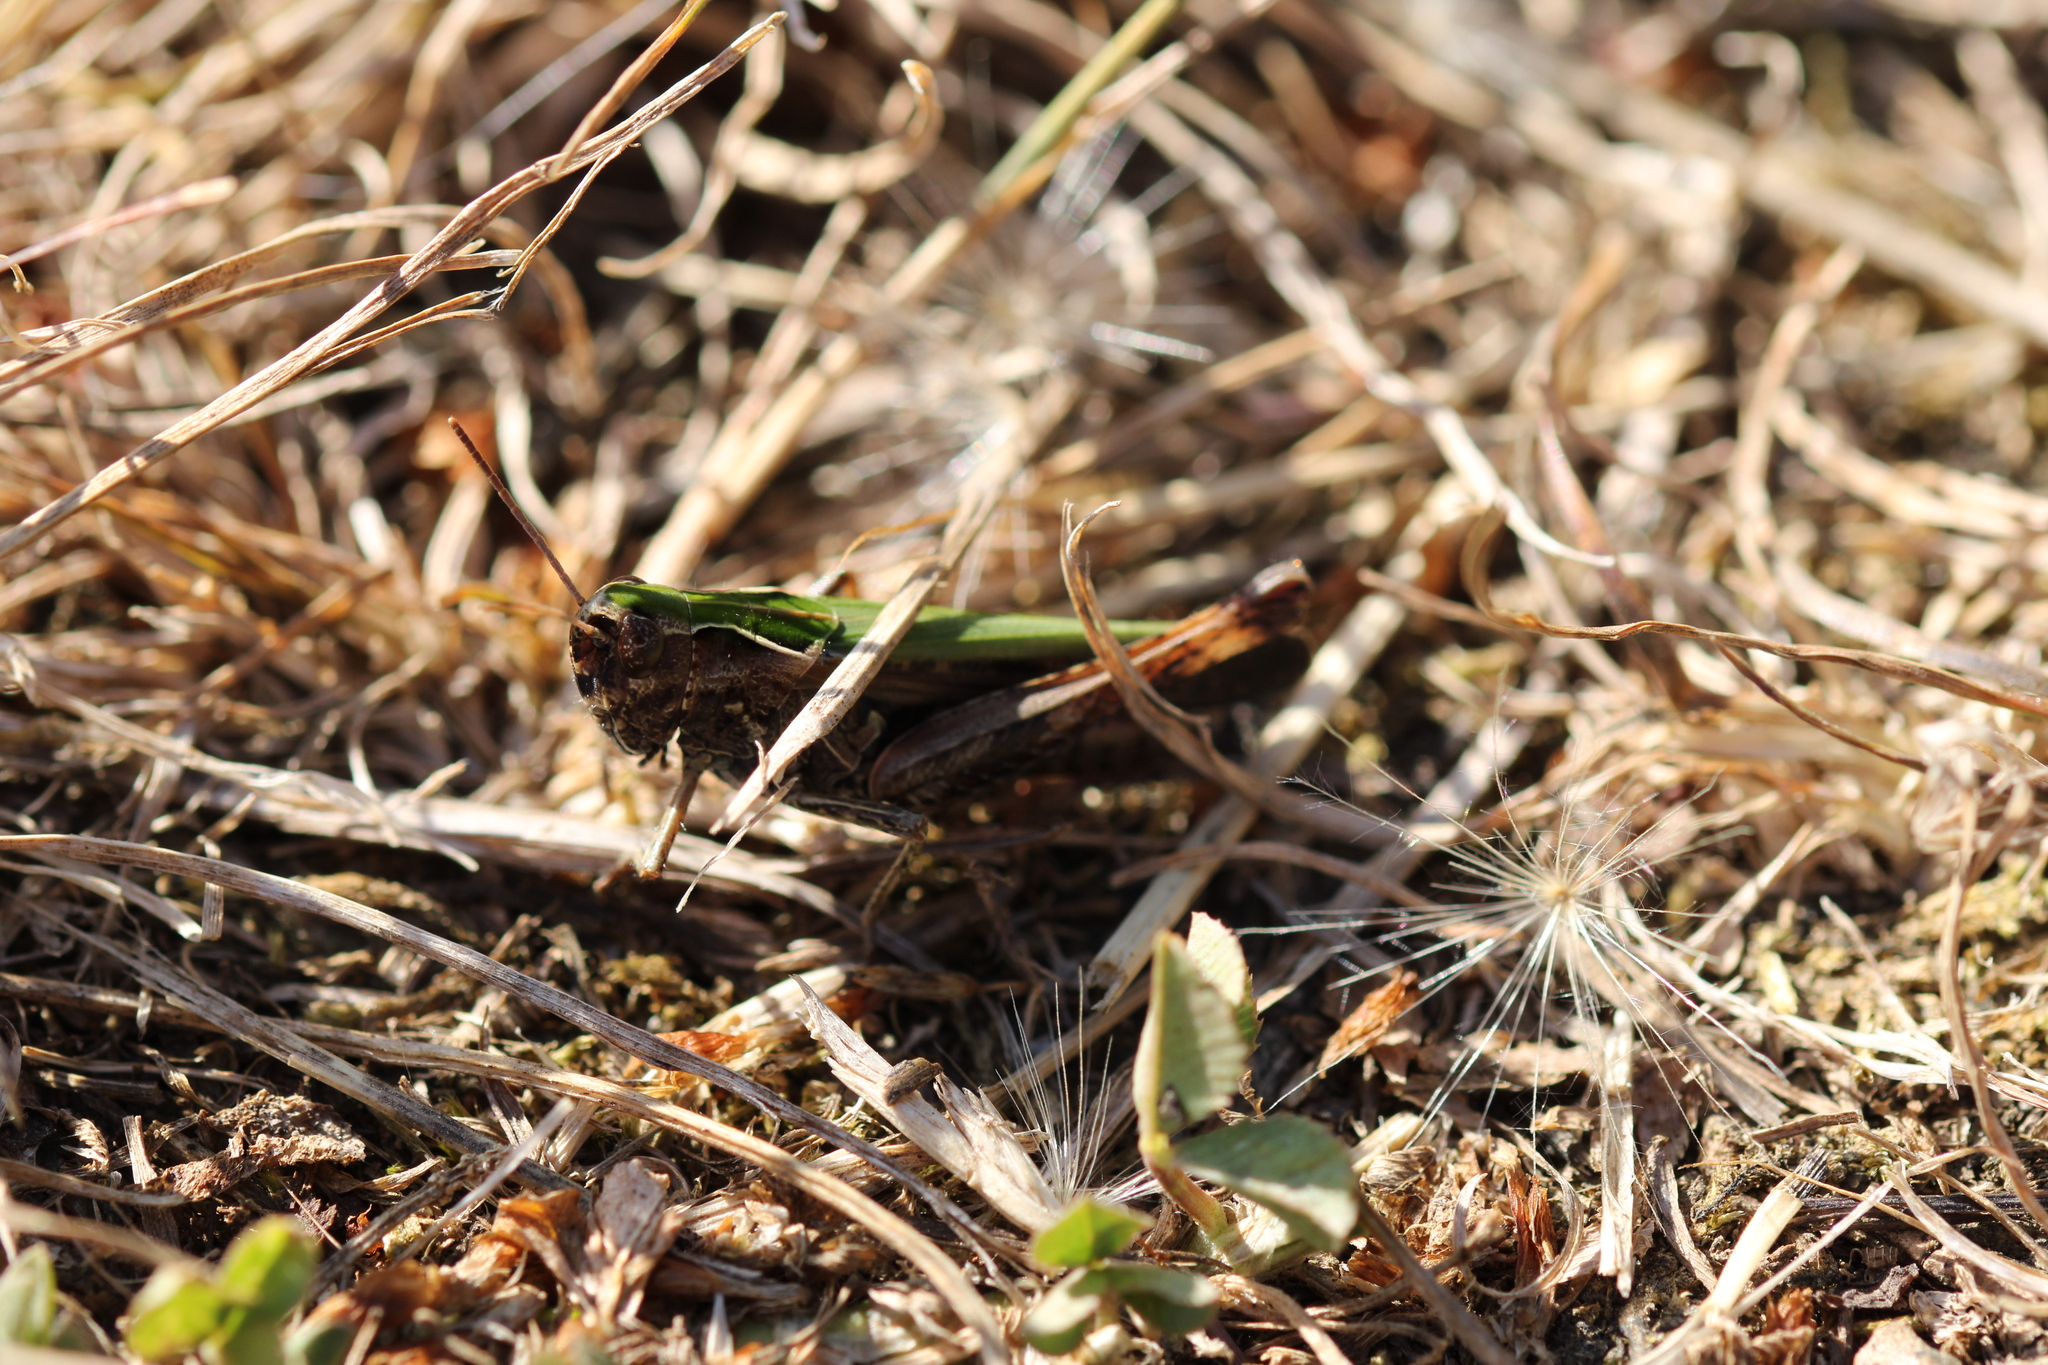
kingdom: Animalia
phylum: Arthropoda
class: Insecta
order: Orthoptera
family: Acrididae
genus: Omocestus
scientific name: Omocestus rufipes
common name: Woodland grasshopper
